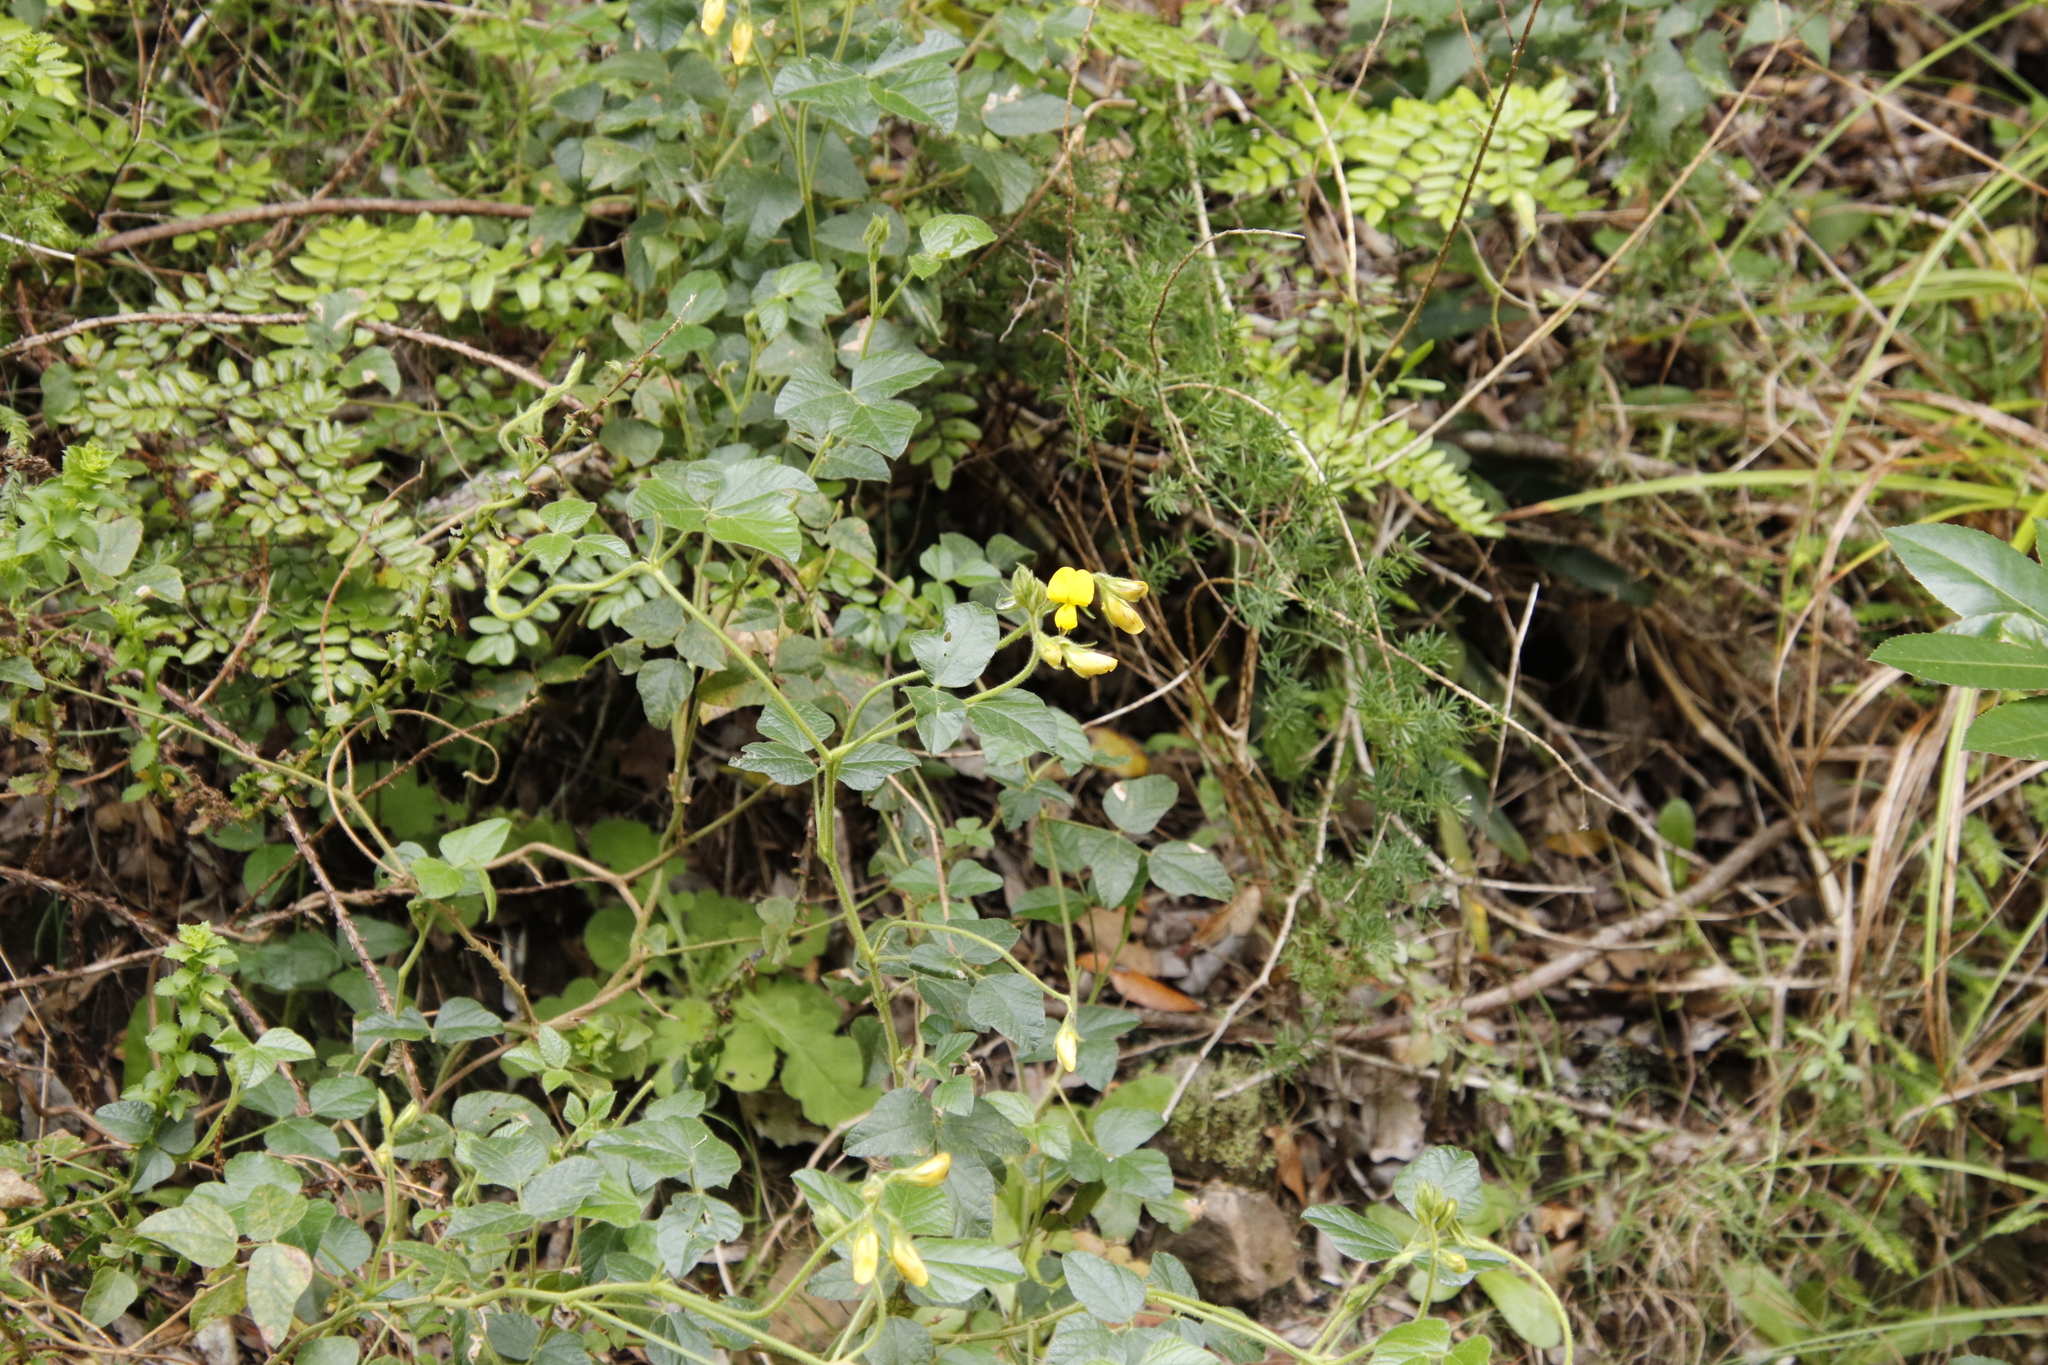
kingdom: Plantae
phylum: Tracheophyta
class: Magnoliopsida
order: Fabales
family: Fabaceae
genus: Bolusafra
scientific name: Bolusafra bituminosa
